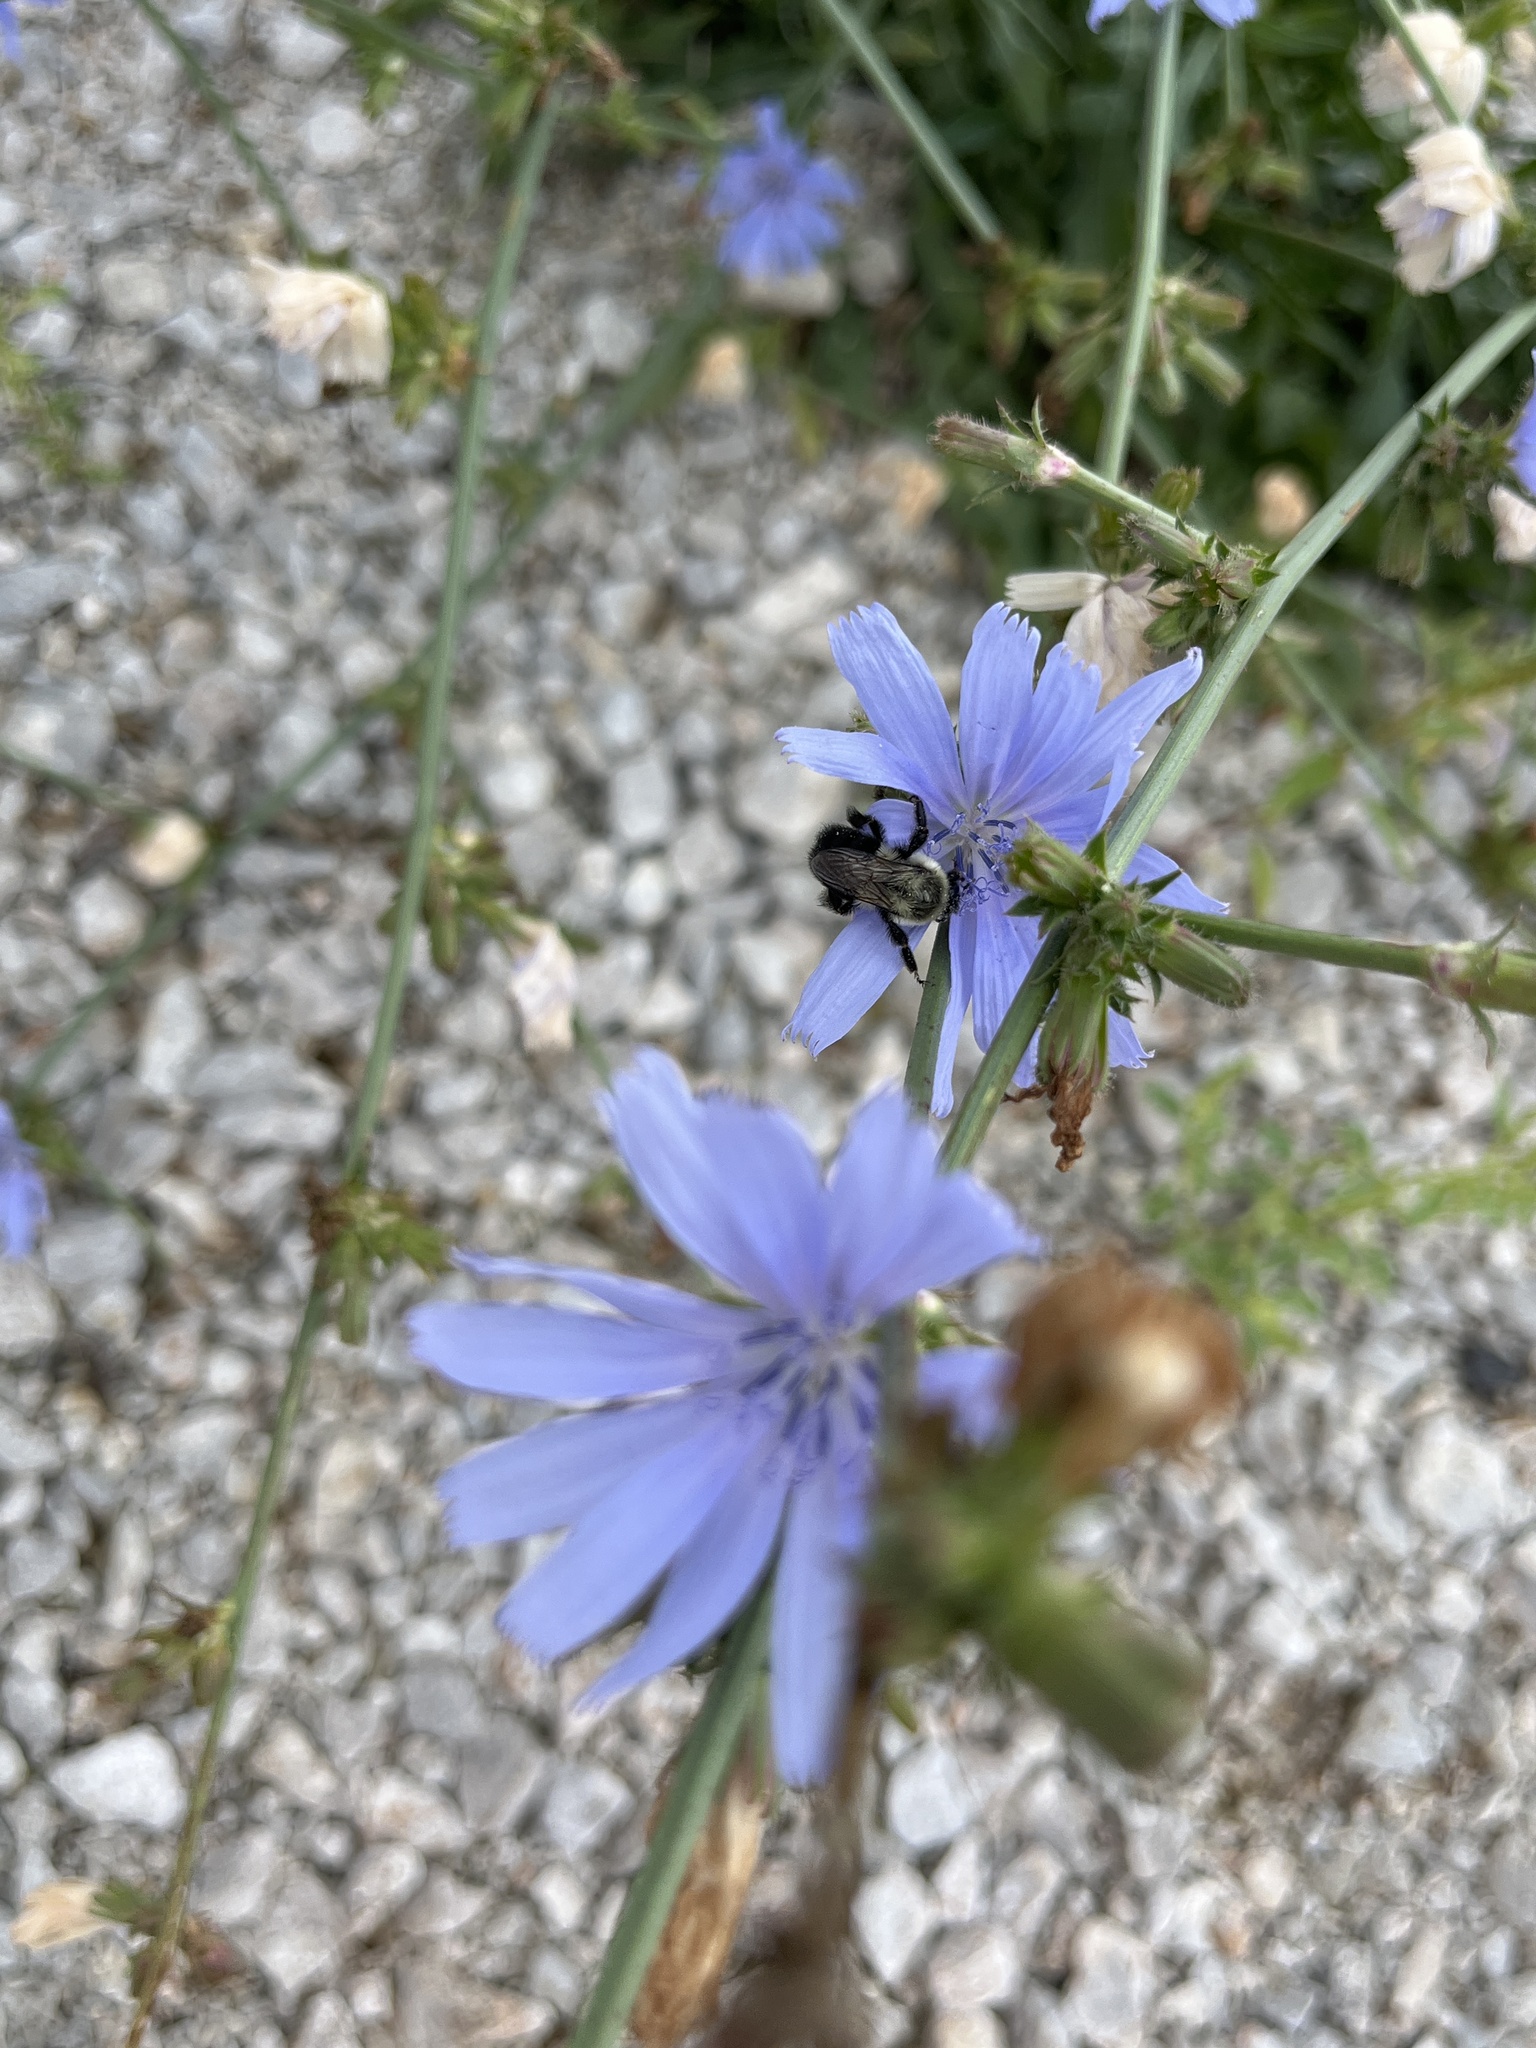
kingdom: Animalia
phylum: Arthropoda
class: Insecta
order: Hymenoptera
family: Apidae
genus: Bombus
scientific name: Bombus impatiens
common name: Common eastern bumble bee
